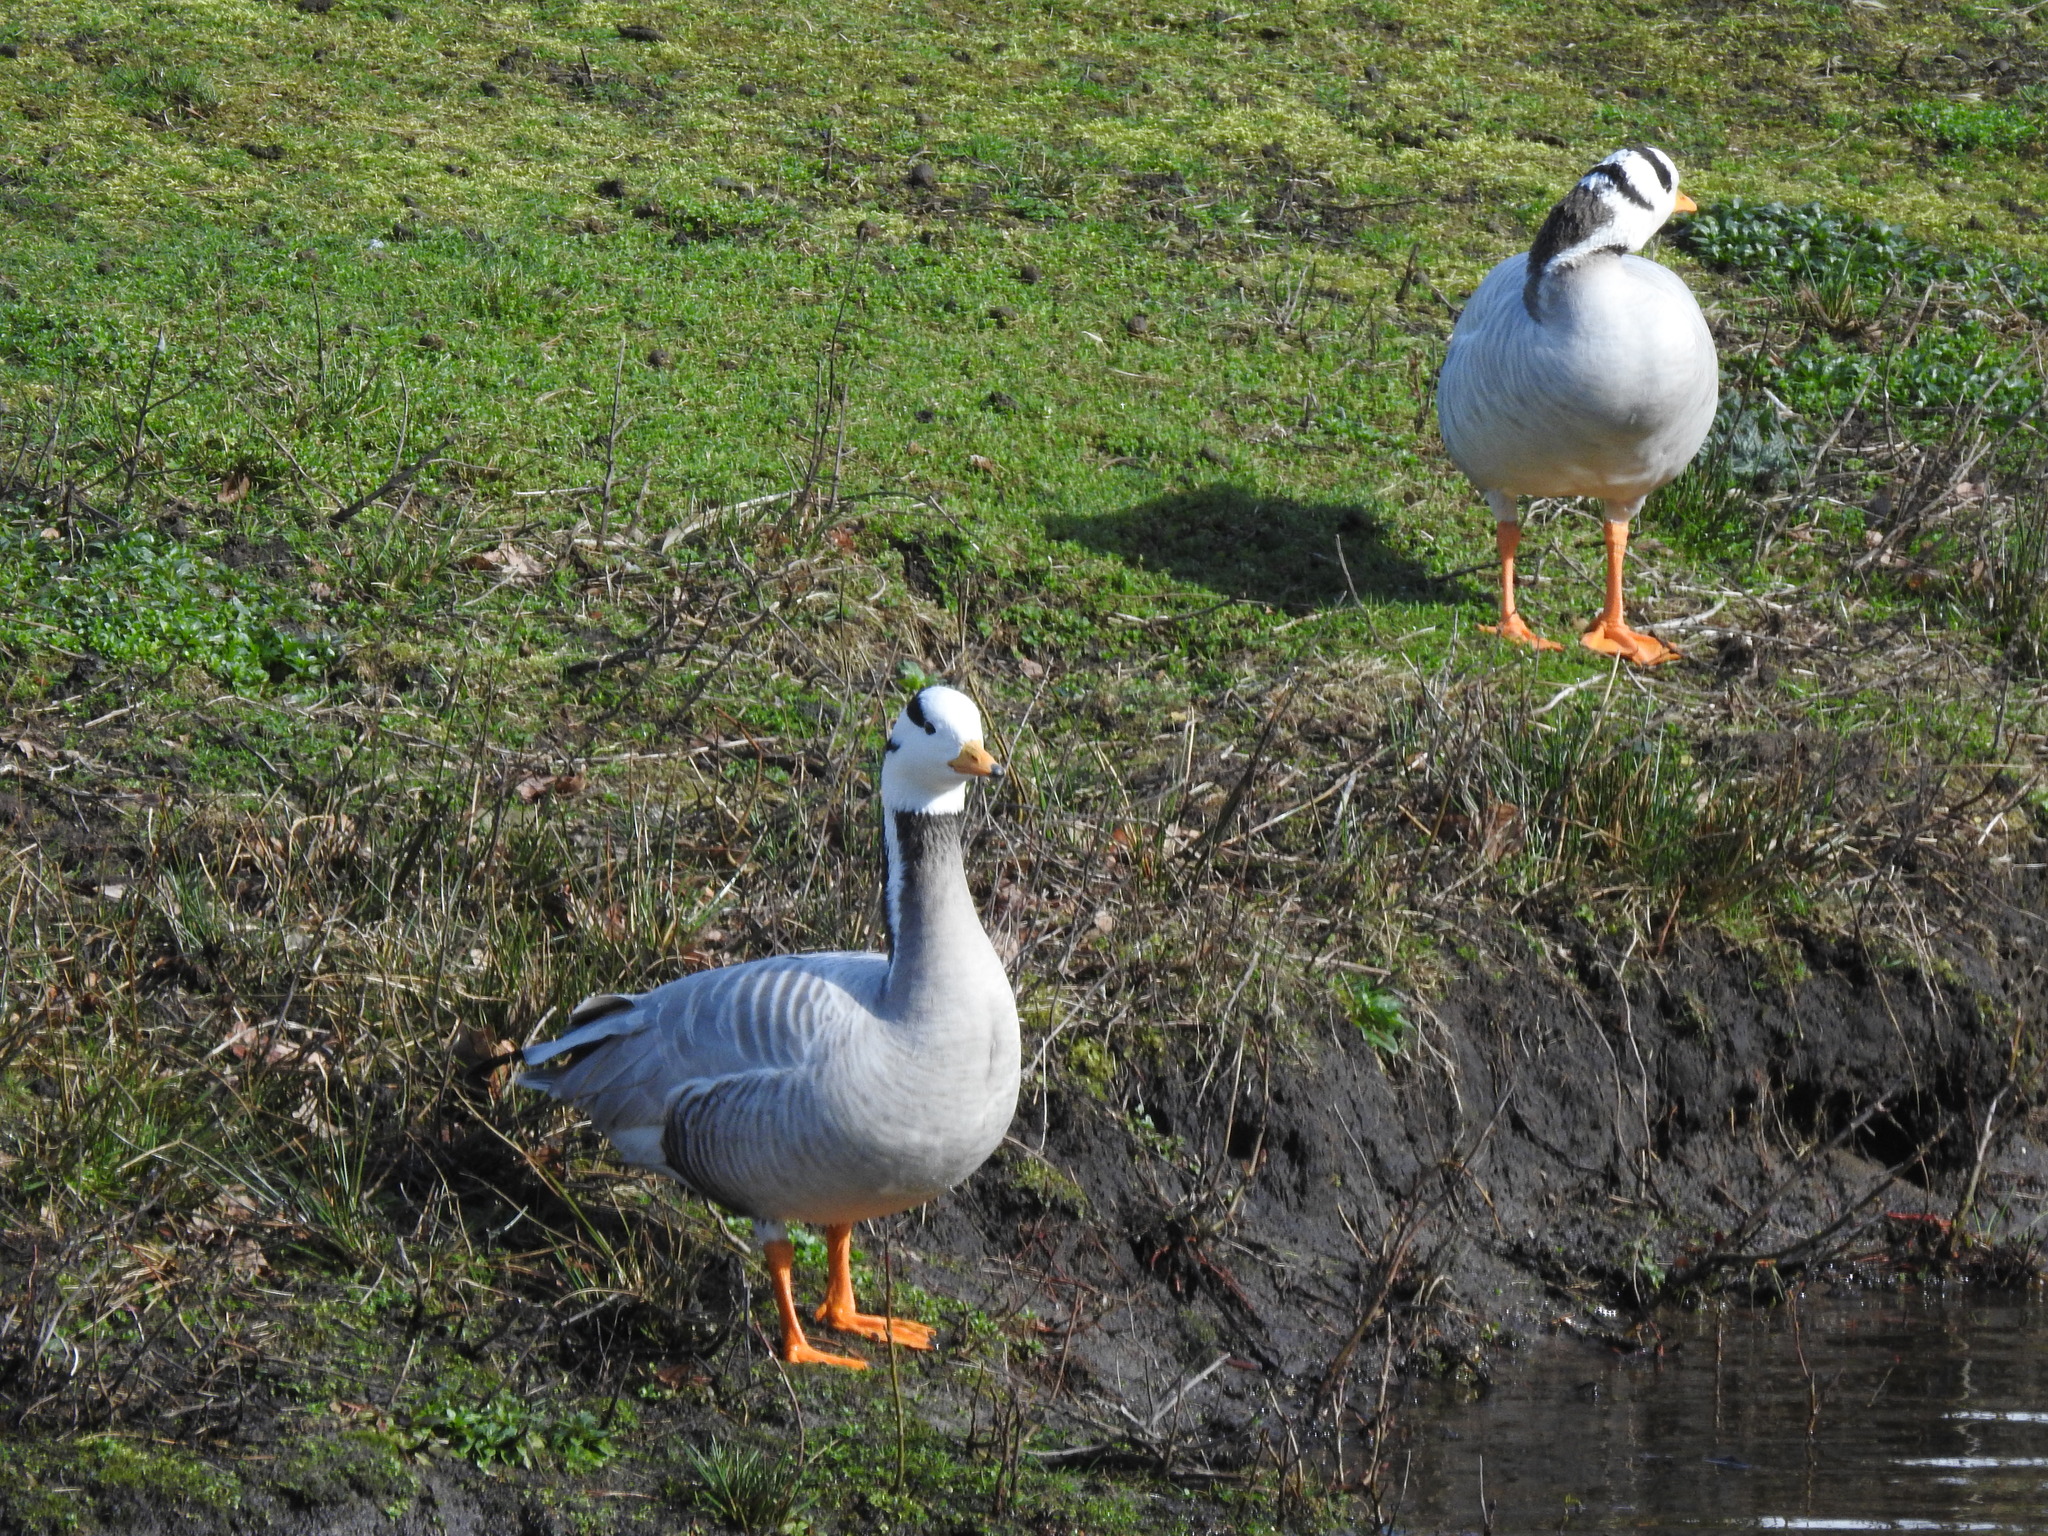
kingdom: Animalia
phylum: Chordata
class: Aves
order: Anseriformes
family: Anatidae
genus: Anser
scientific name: Anser indicus
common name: Bar-headed goose
